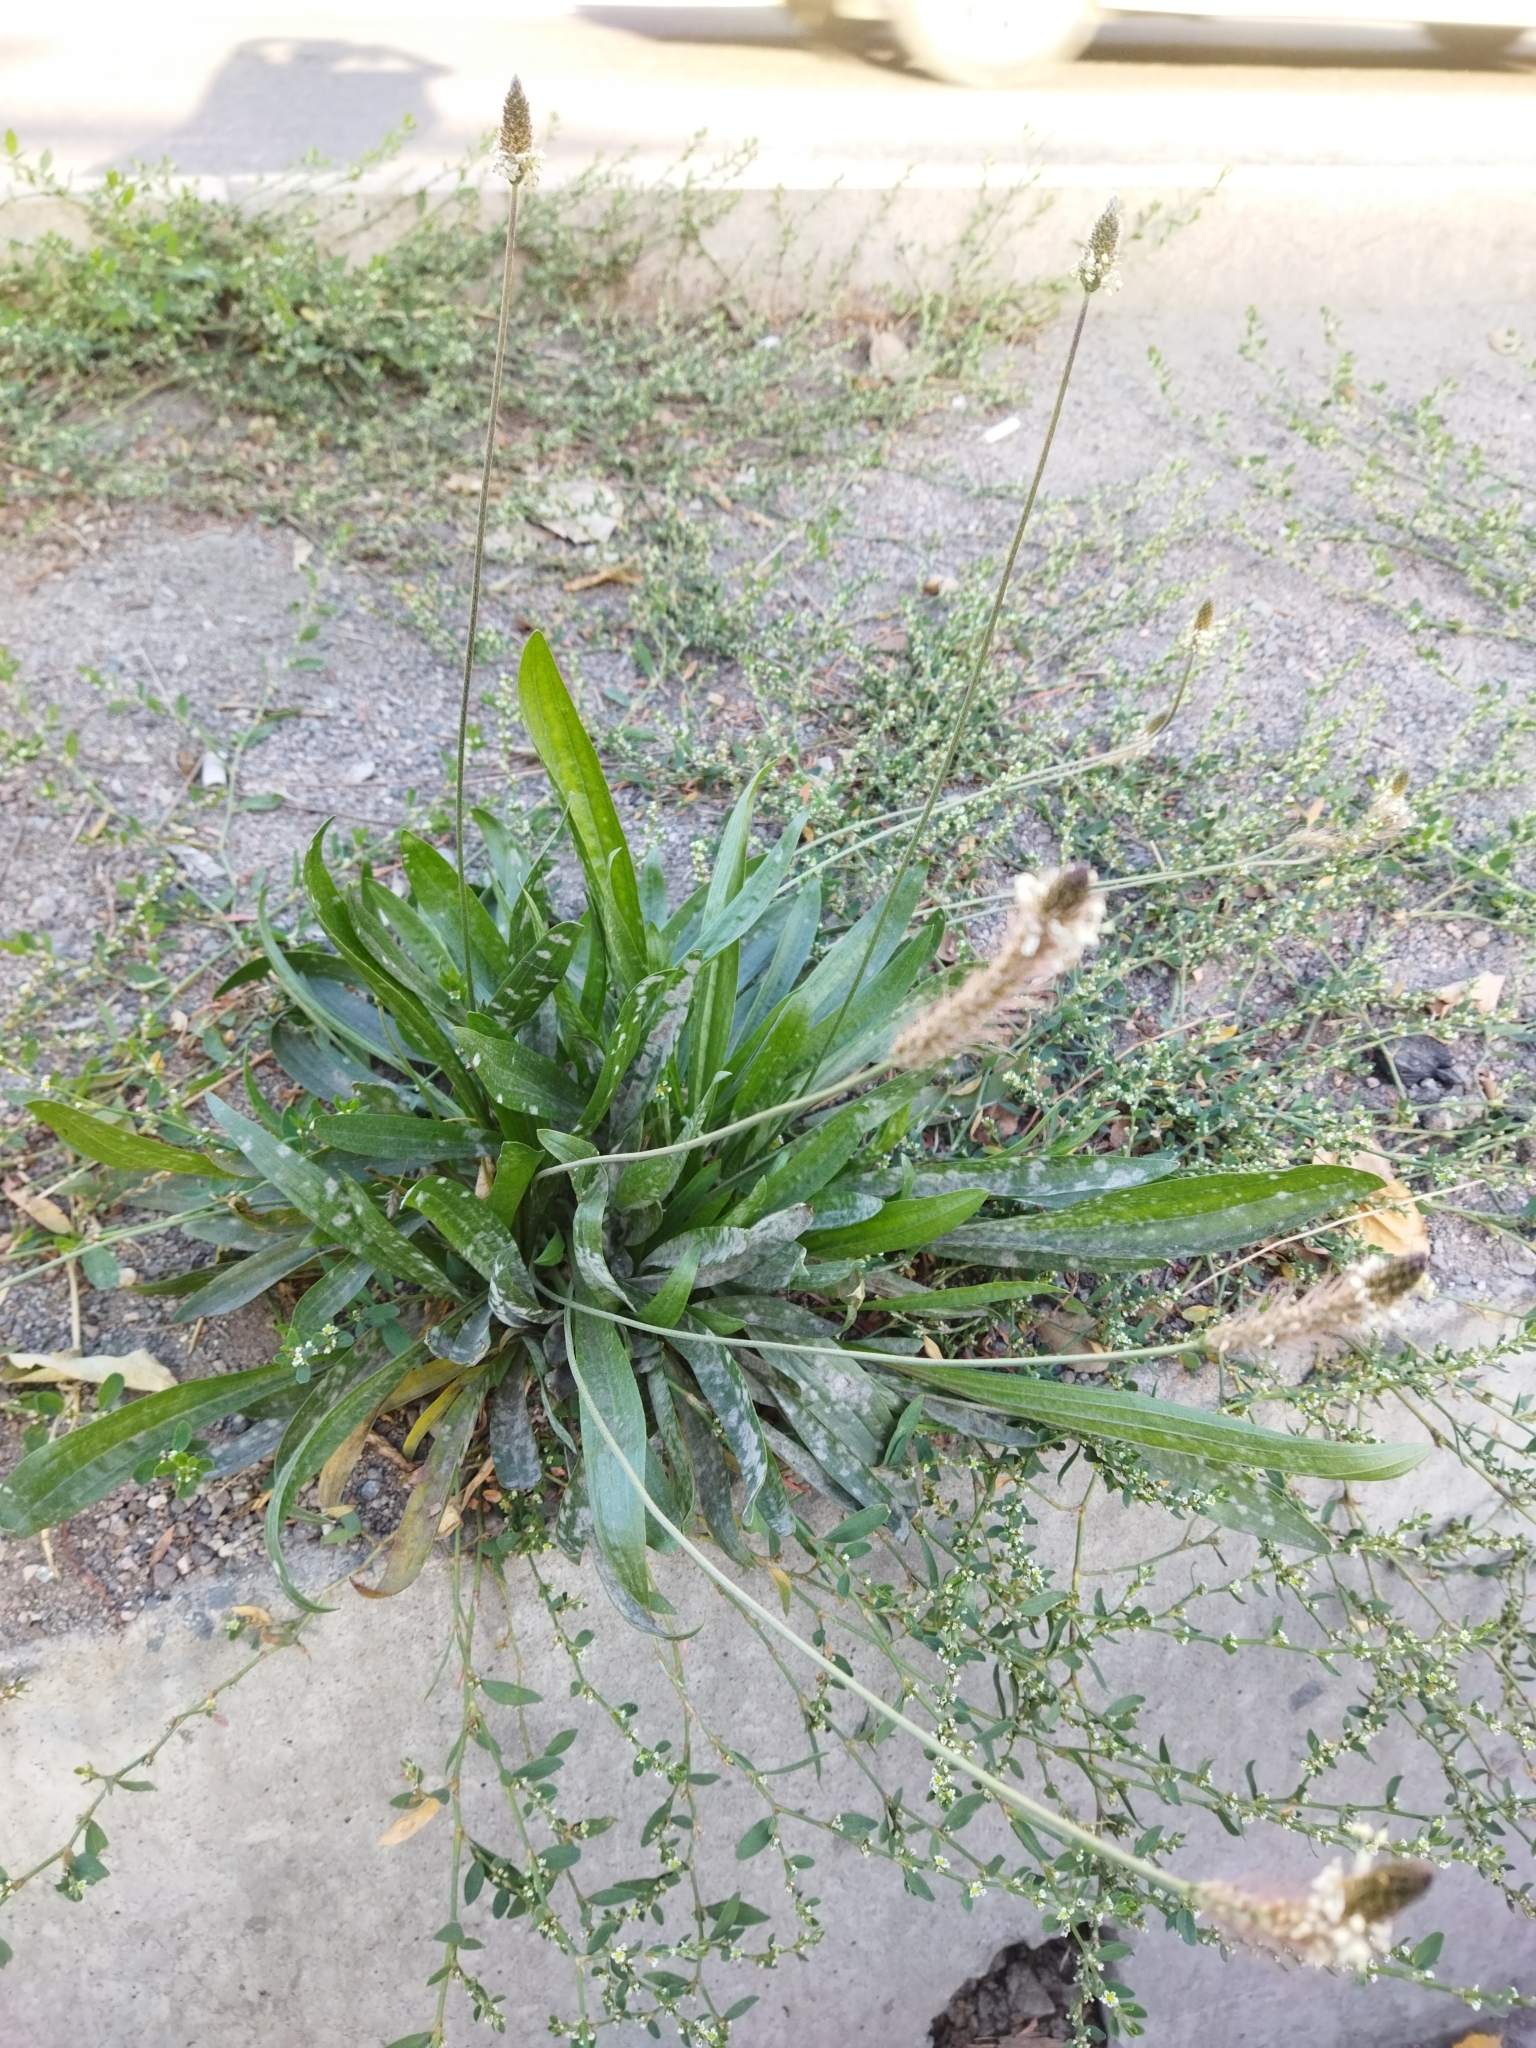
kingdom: Plantae
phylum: Tracheophyta
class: Magnoliopsida
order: Lamiales
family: Plantaginaceae
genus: Plantago
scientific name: Plantago lanceolata
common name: Ribwort plantain
